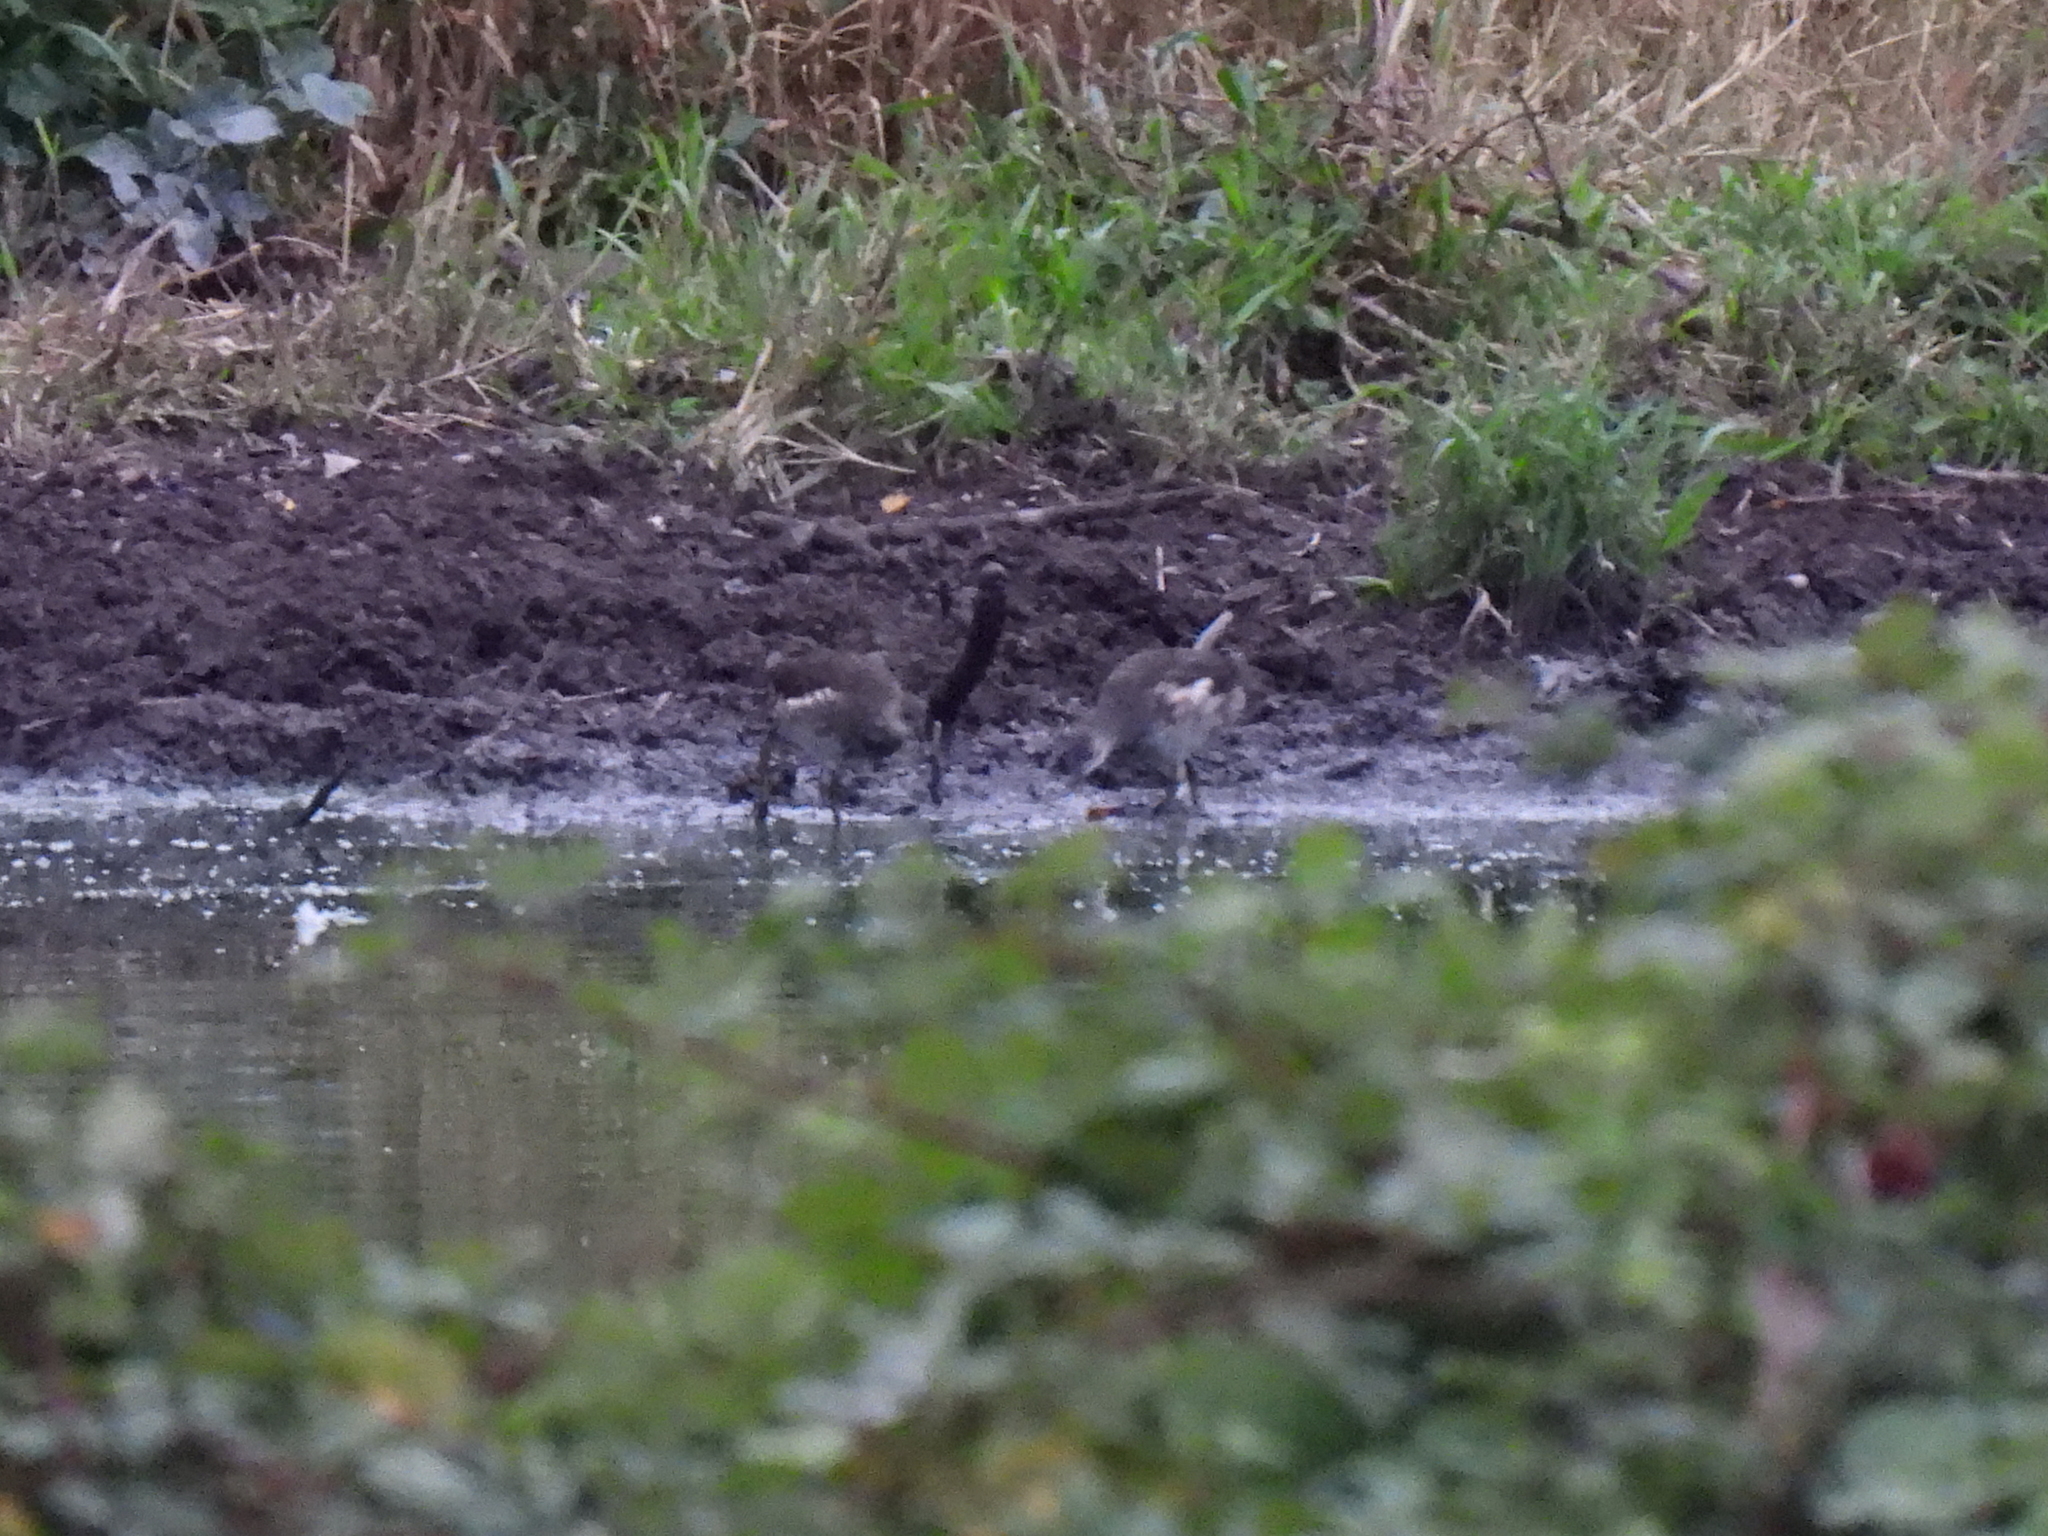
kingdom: Animalia
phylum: Chordata
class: Aves
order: Gruiformes
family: Rallidae
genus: Gallinula
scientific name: Gallinula chloropus
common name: Common moorhen
